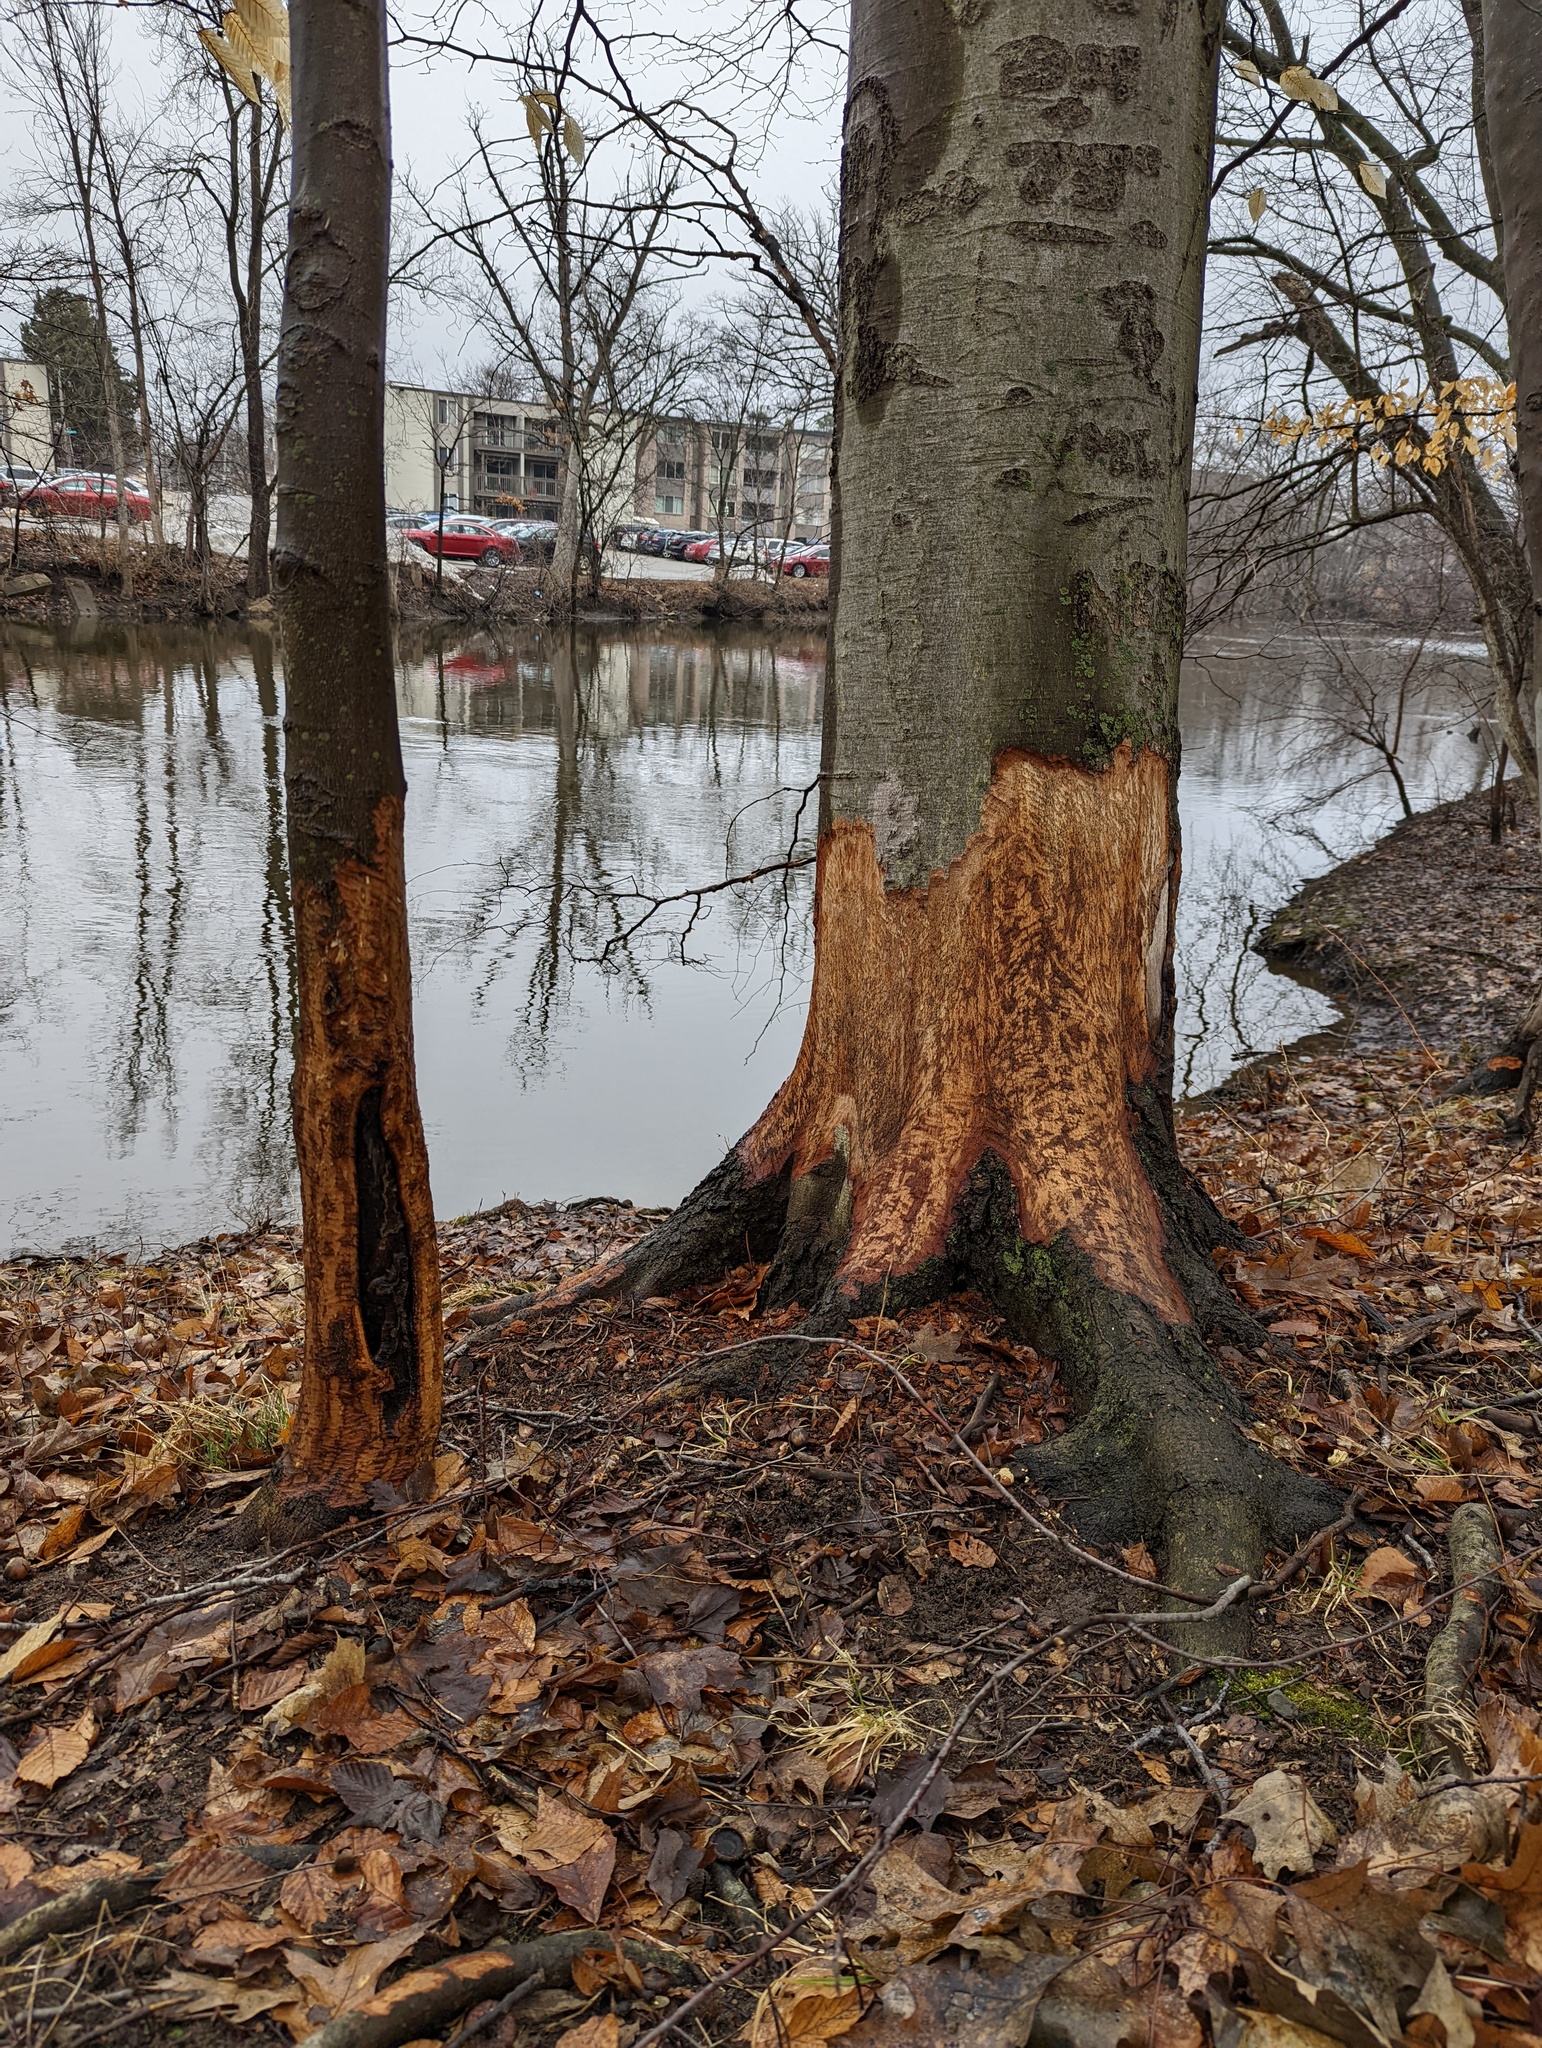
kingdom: Animalia
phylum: Chordata
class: Mammalia
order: Rodentia
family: Castoridae
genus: Castor
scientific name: Castor canadensis
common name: American beaver
